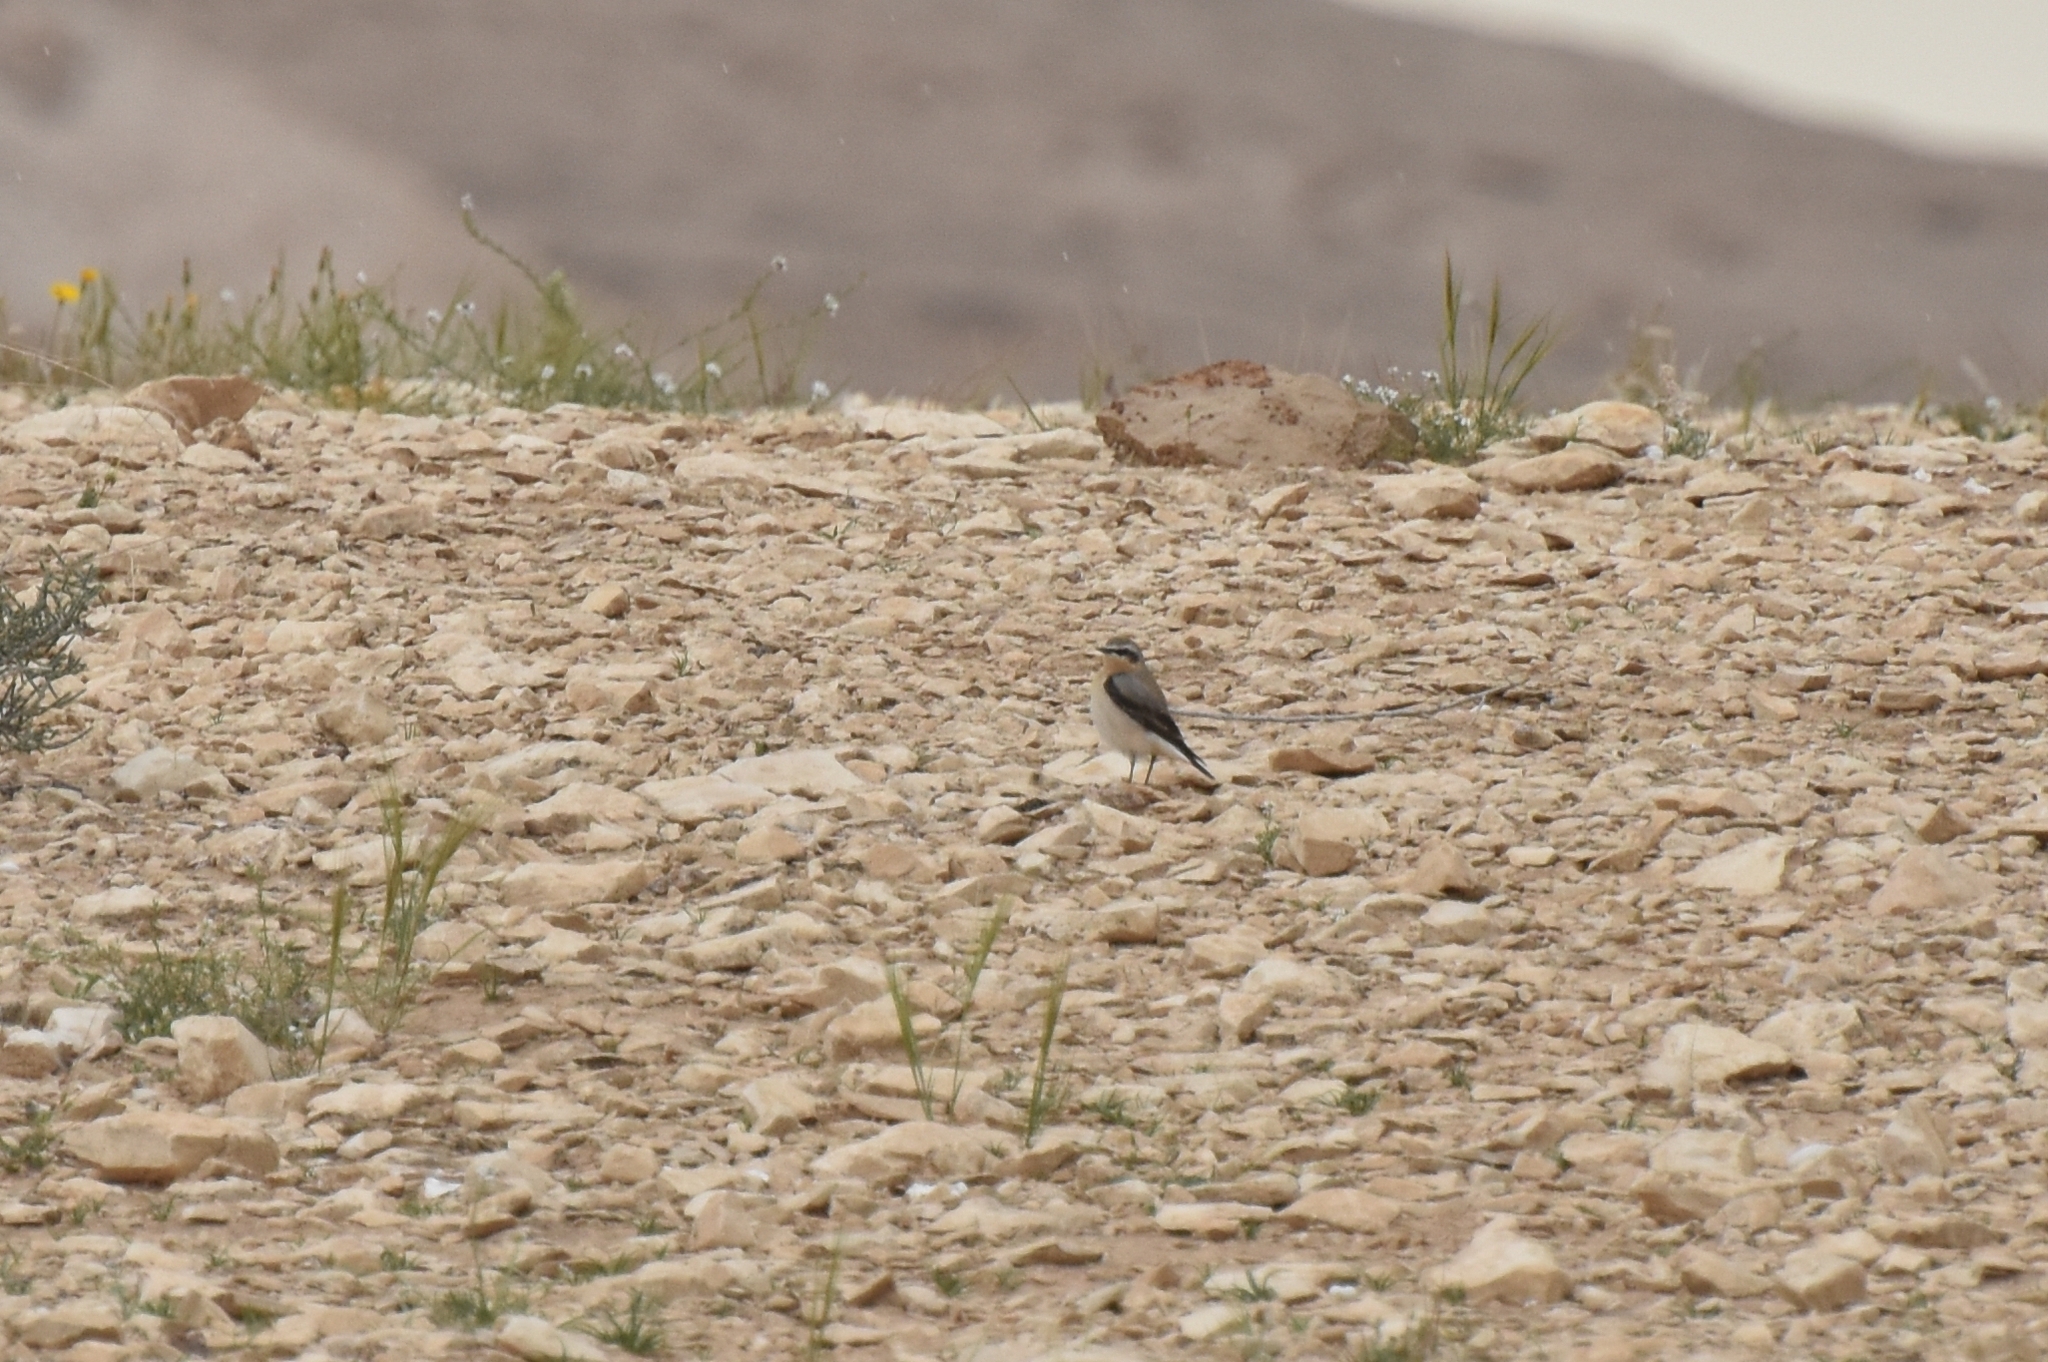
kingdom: Animalia
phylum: Chordata
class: Aves
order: Passeriformes
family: Muscicapidae
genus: Oenanthe
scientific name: Oenanthe oenanthe
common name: Northern wheatear
